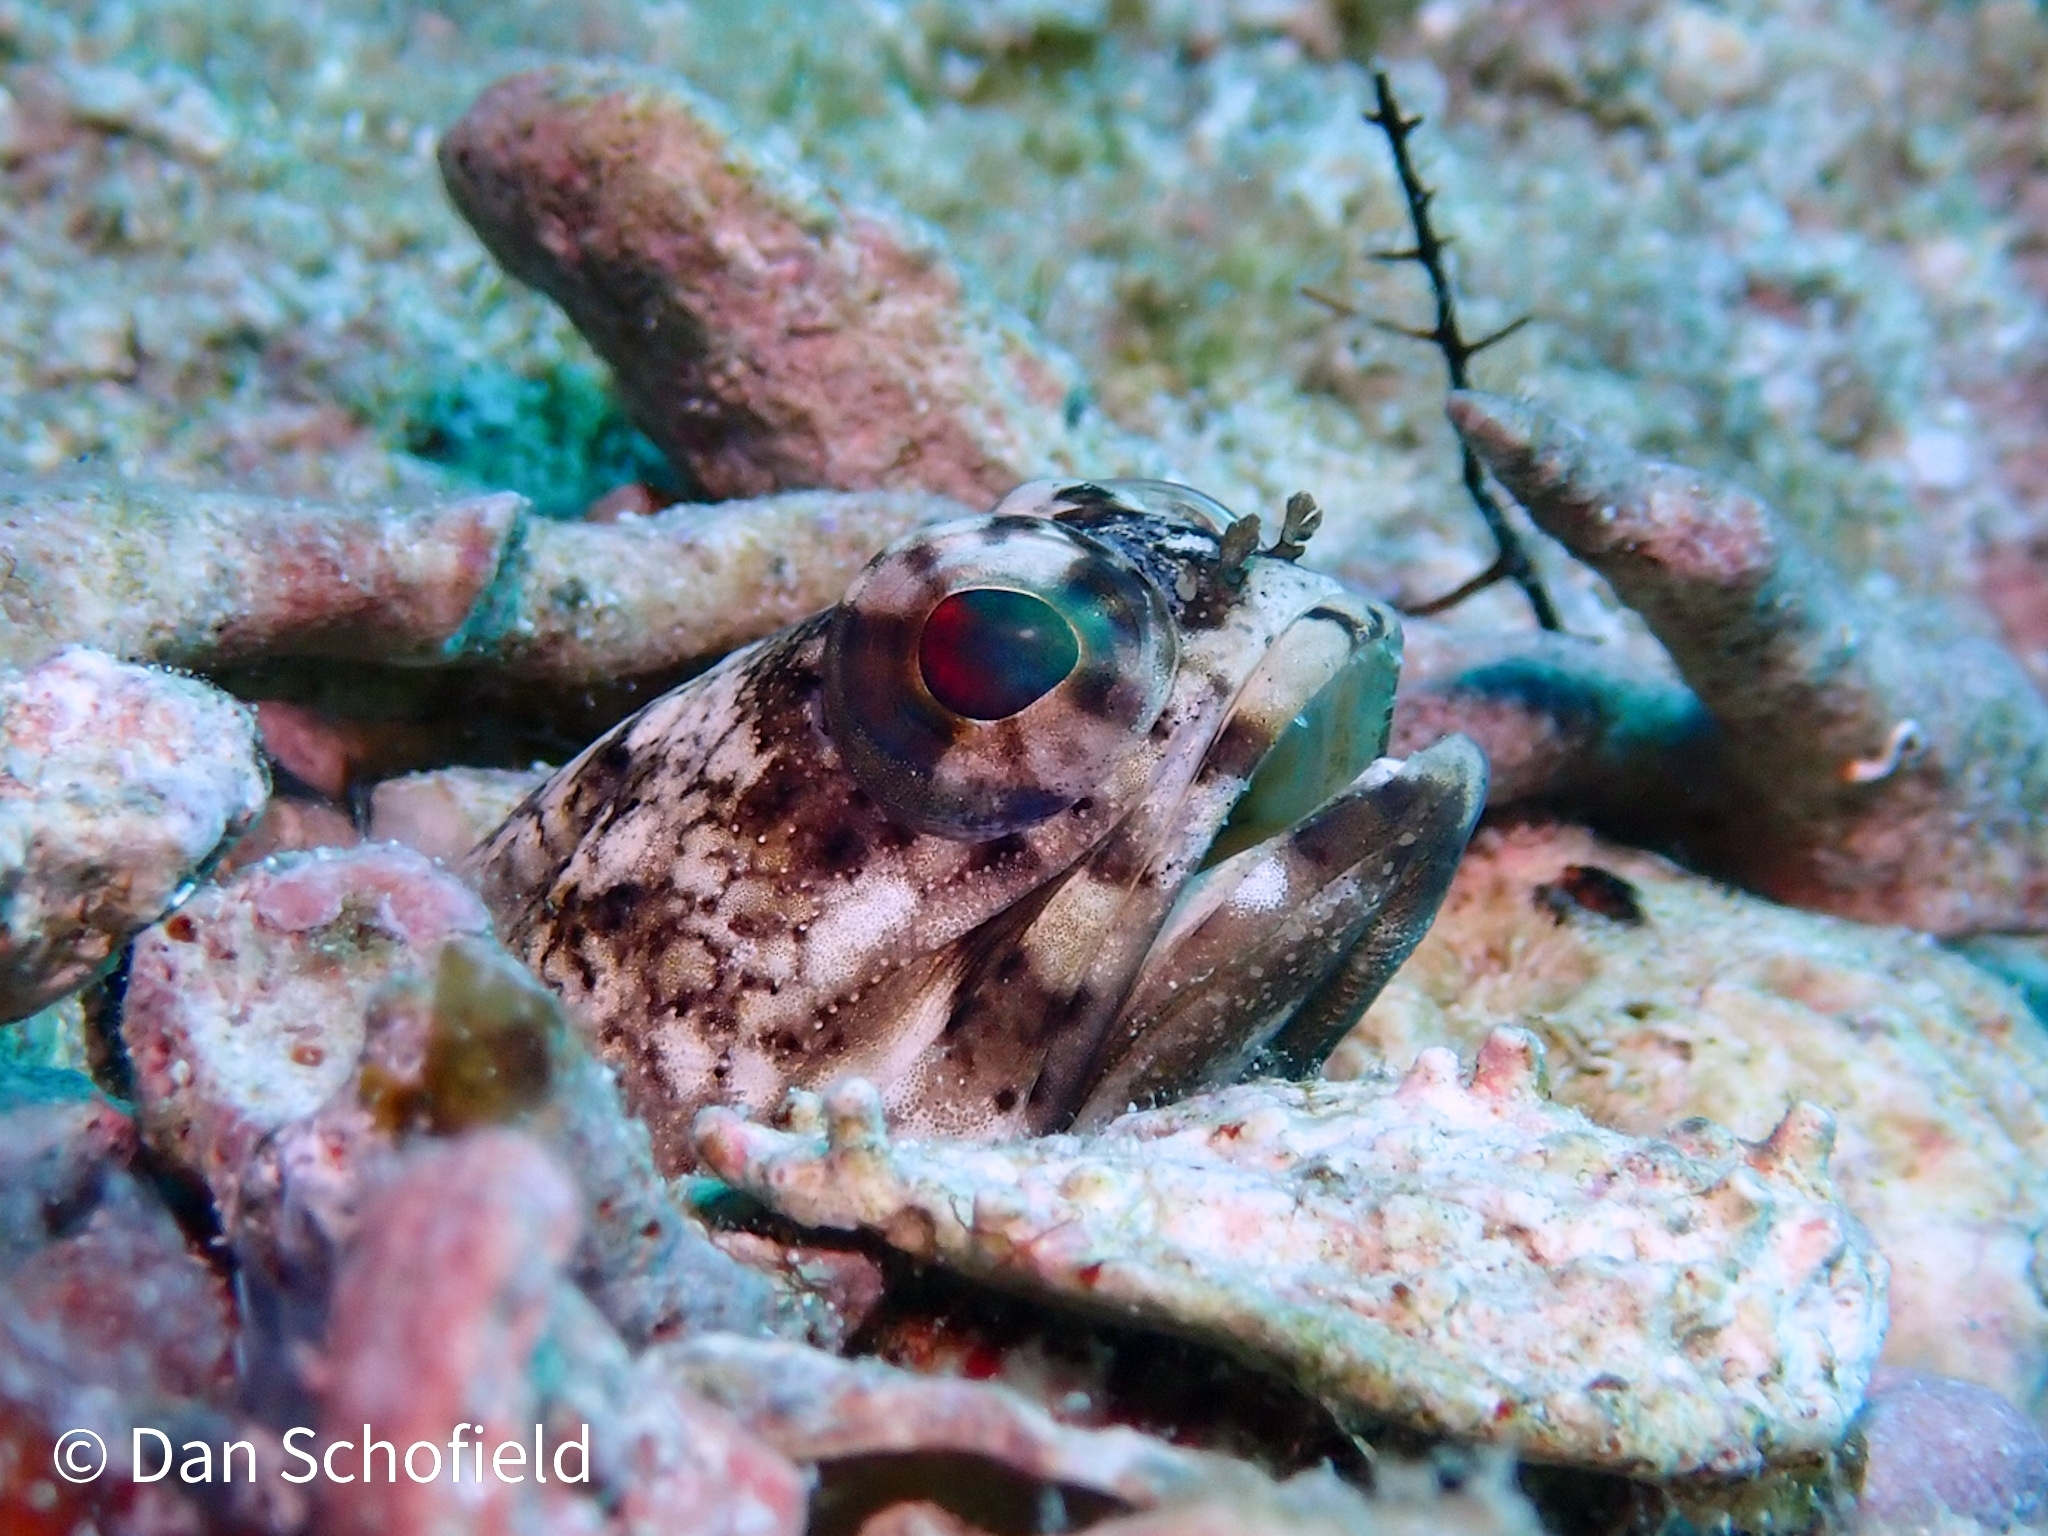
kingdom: Animalia
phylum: Chordata
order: Perciformes
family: Opistognathidae
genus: Opistognathus
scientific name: Opistognathus maxillosus
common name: Mottled jawfish
